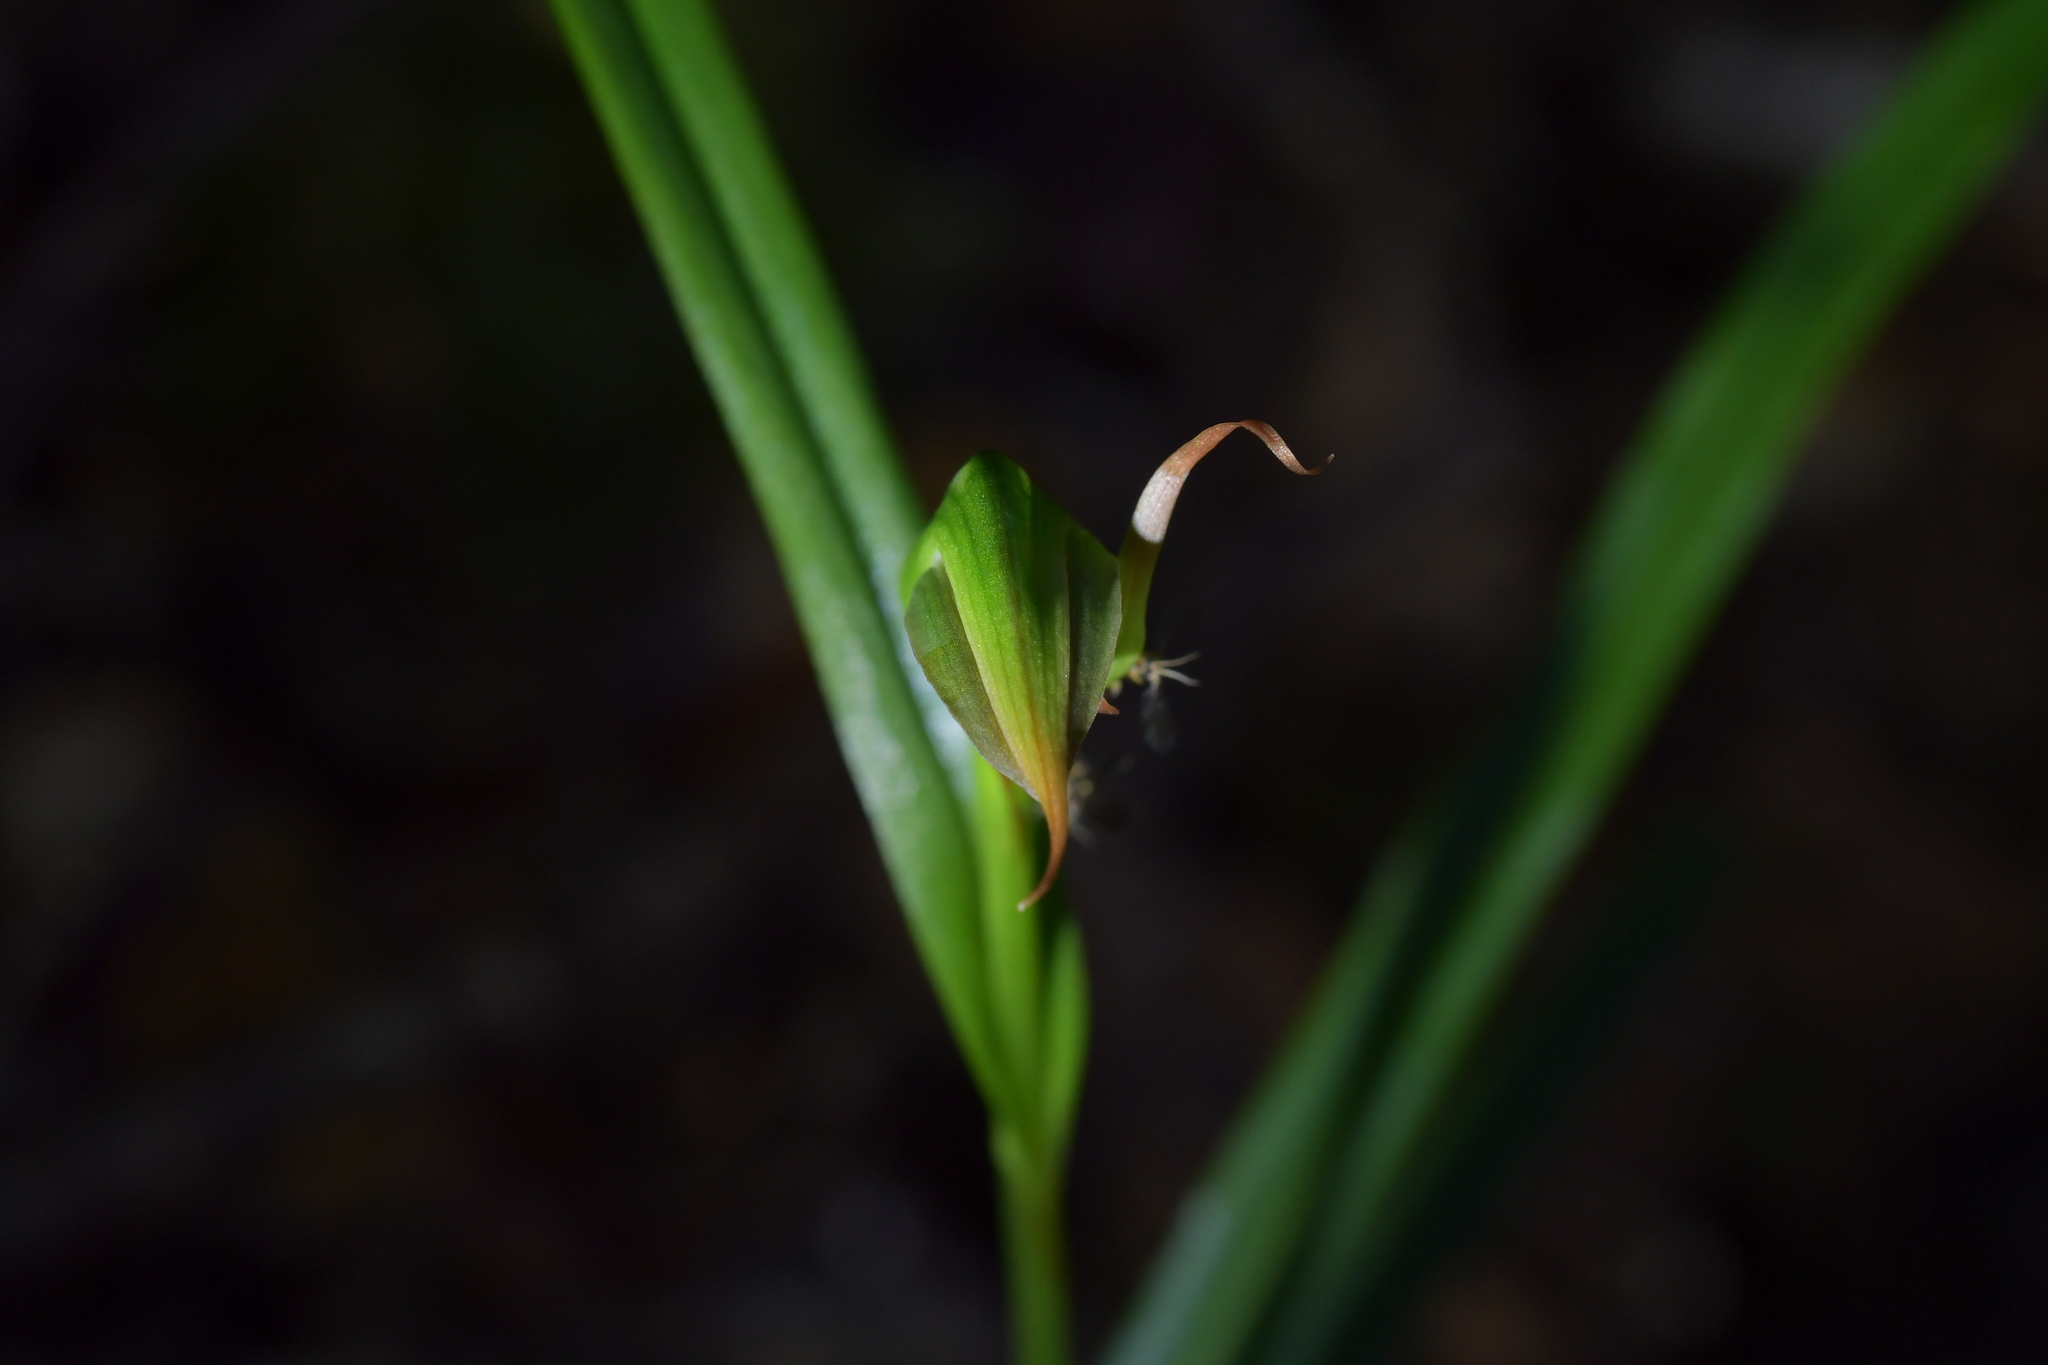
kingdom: Plantae
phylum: Tracheophyta
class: Liliopsida
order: Asparagales
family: Orchidaceae
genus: Pterostylis
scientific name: Pterostylis montana
